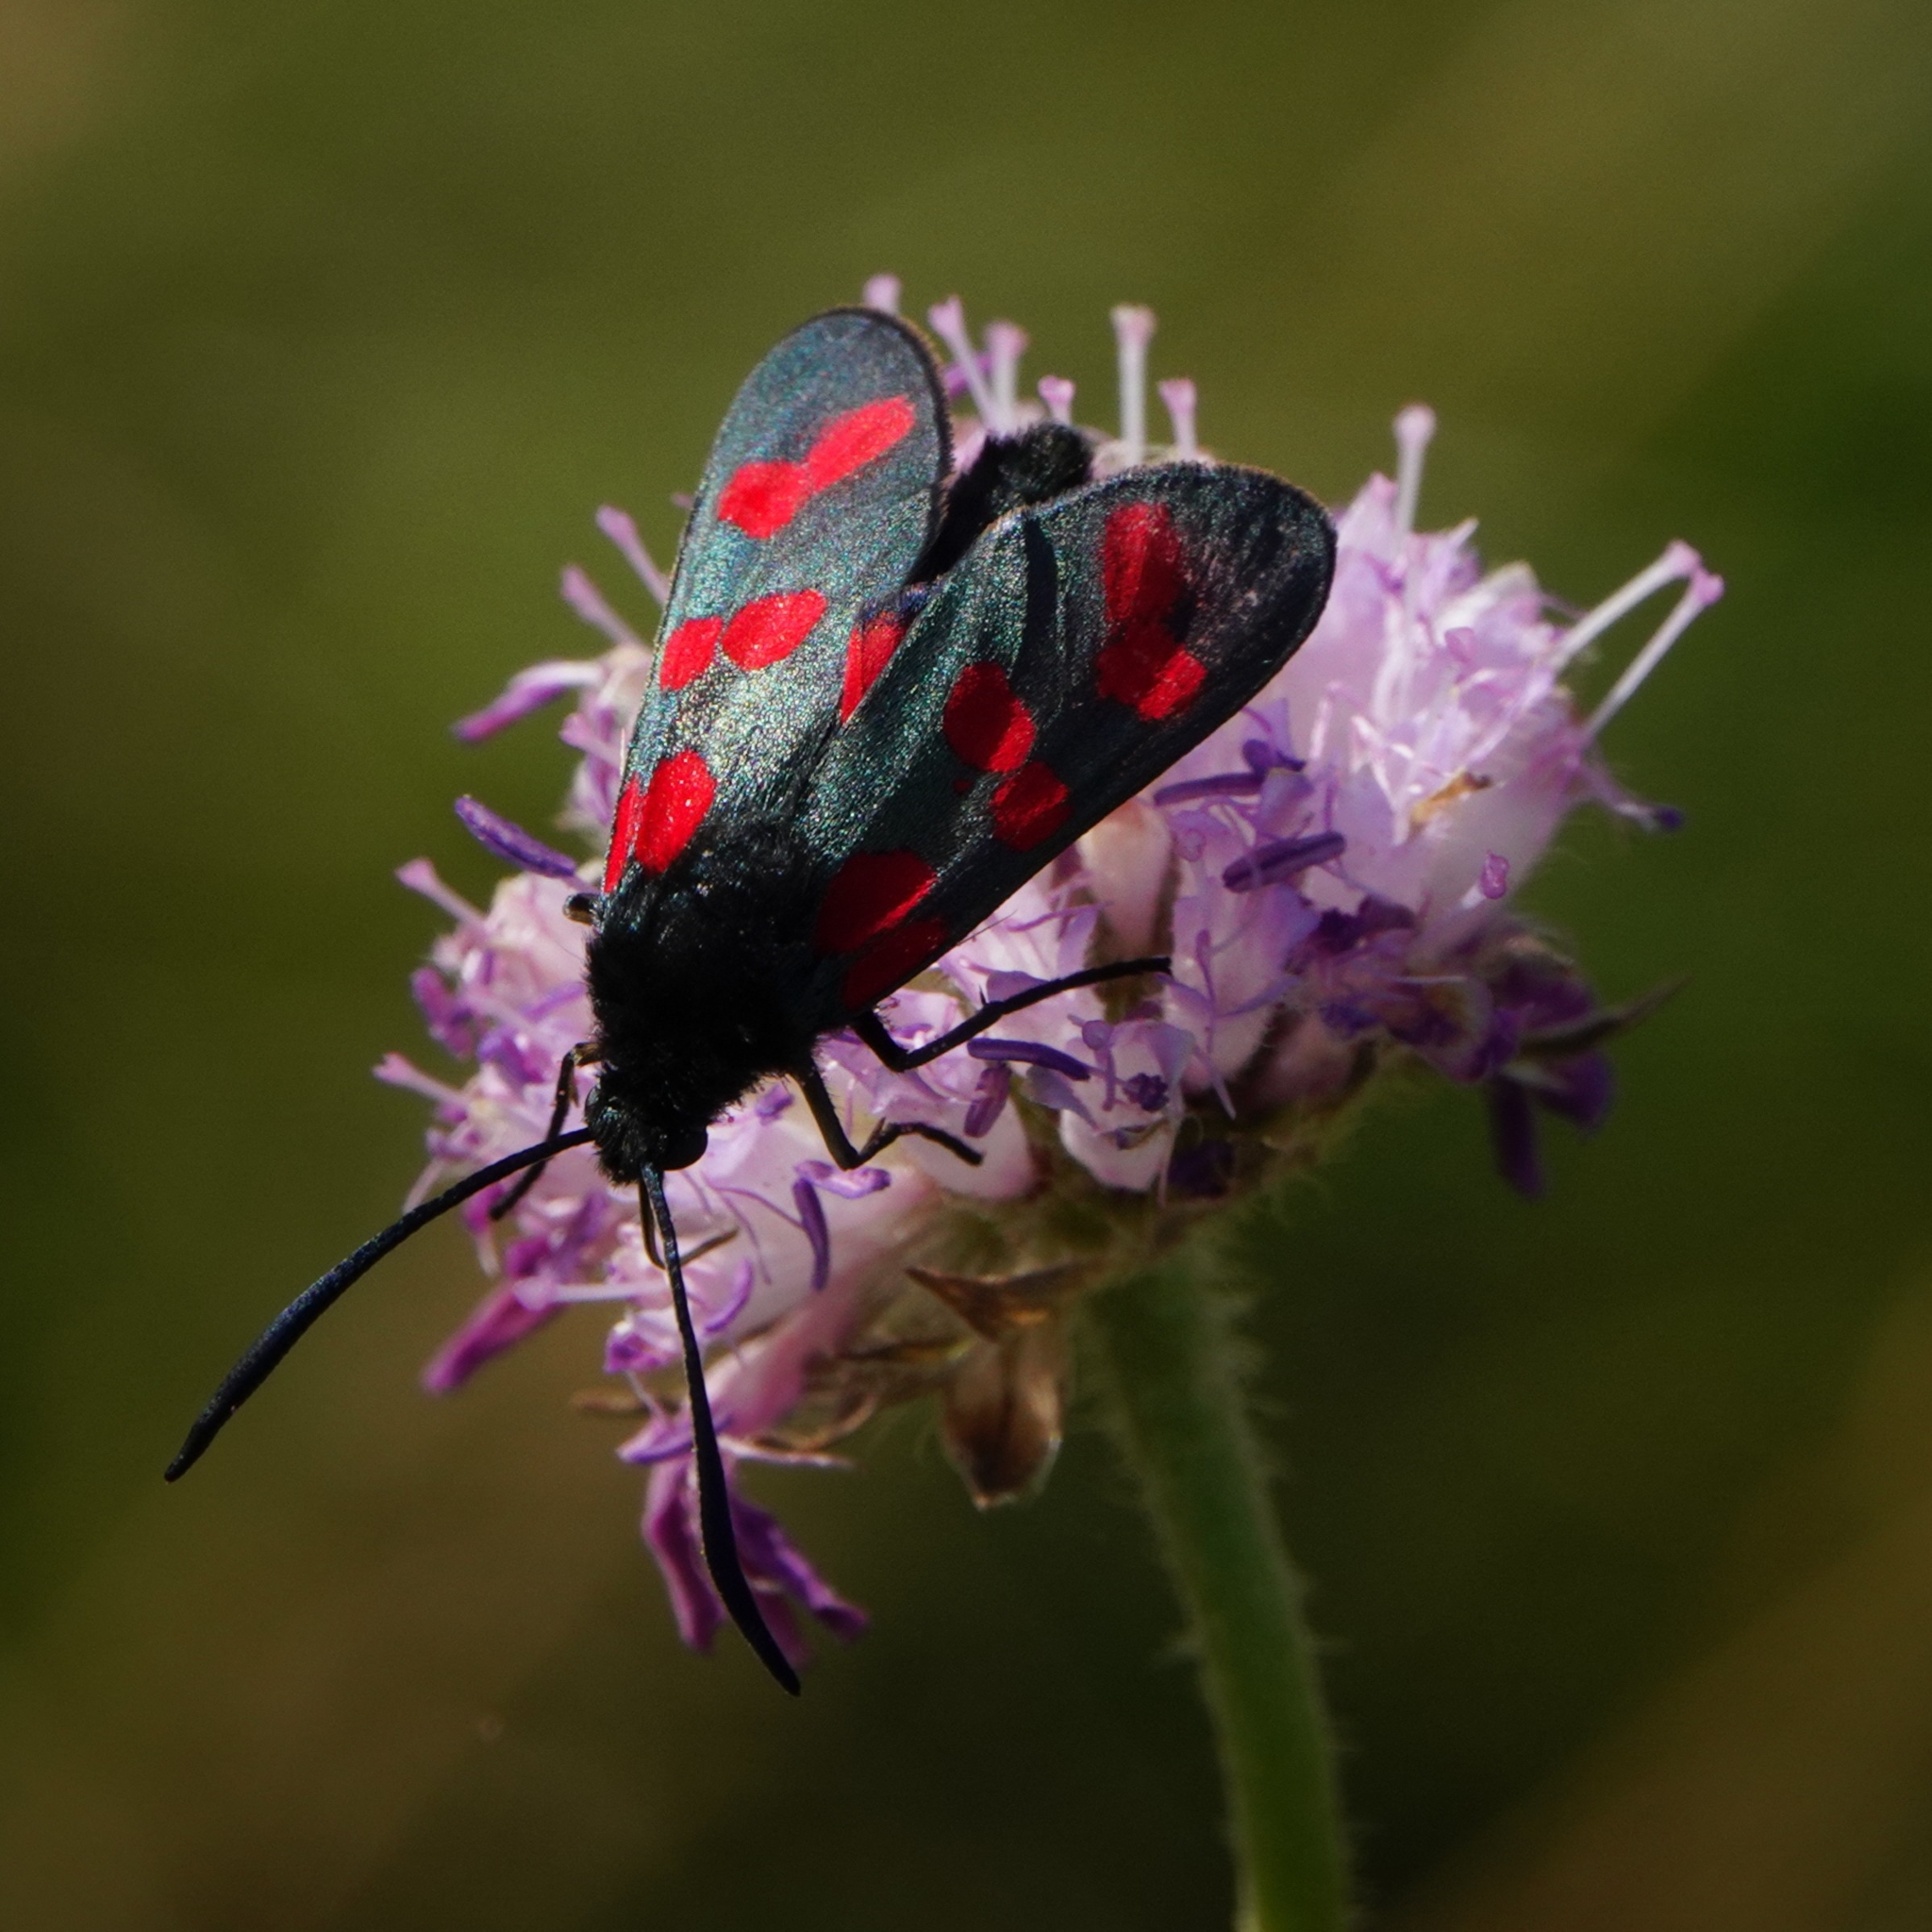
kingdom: Animalia
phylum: Arthropoda
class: Insecta
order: Lepidoptera
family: Zygaenidae
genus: Zygaena
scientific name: Zygaena filipendulae
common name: Six-spot burnet
